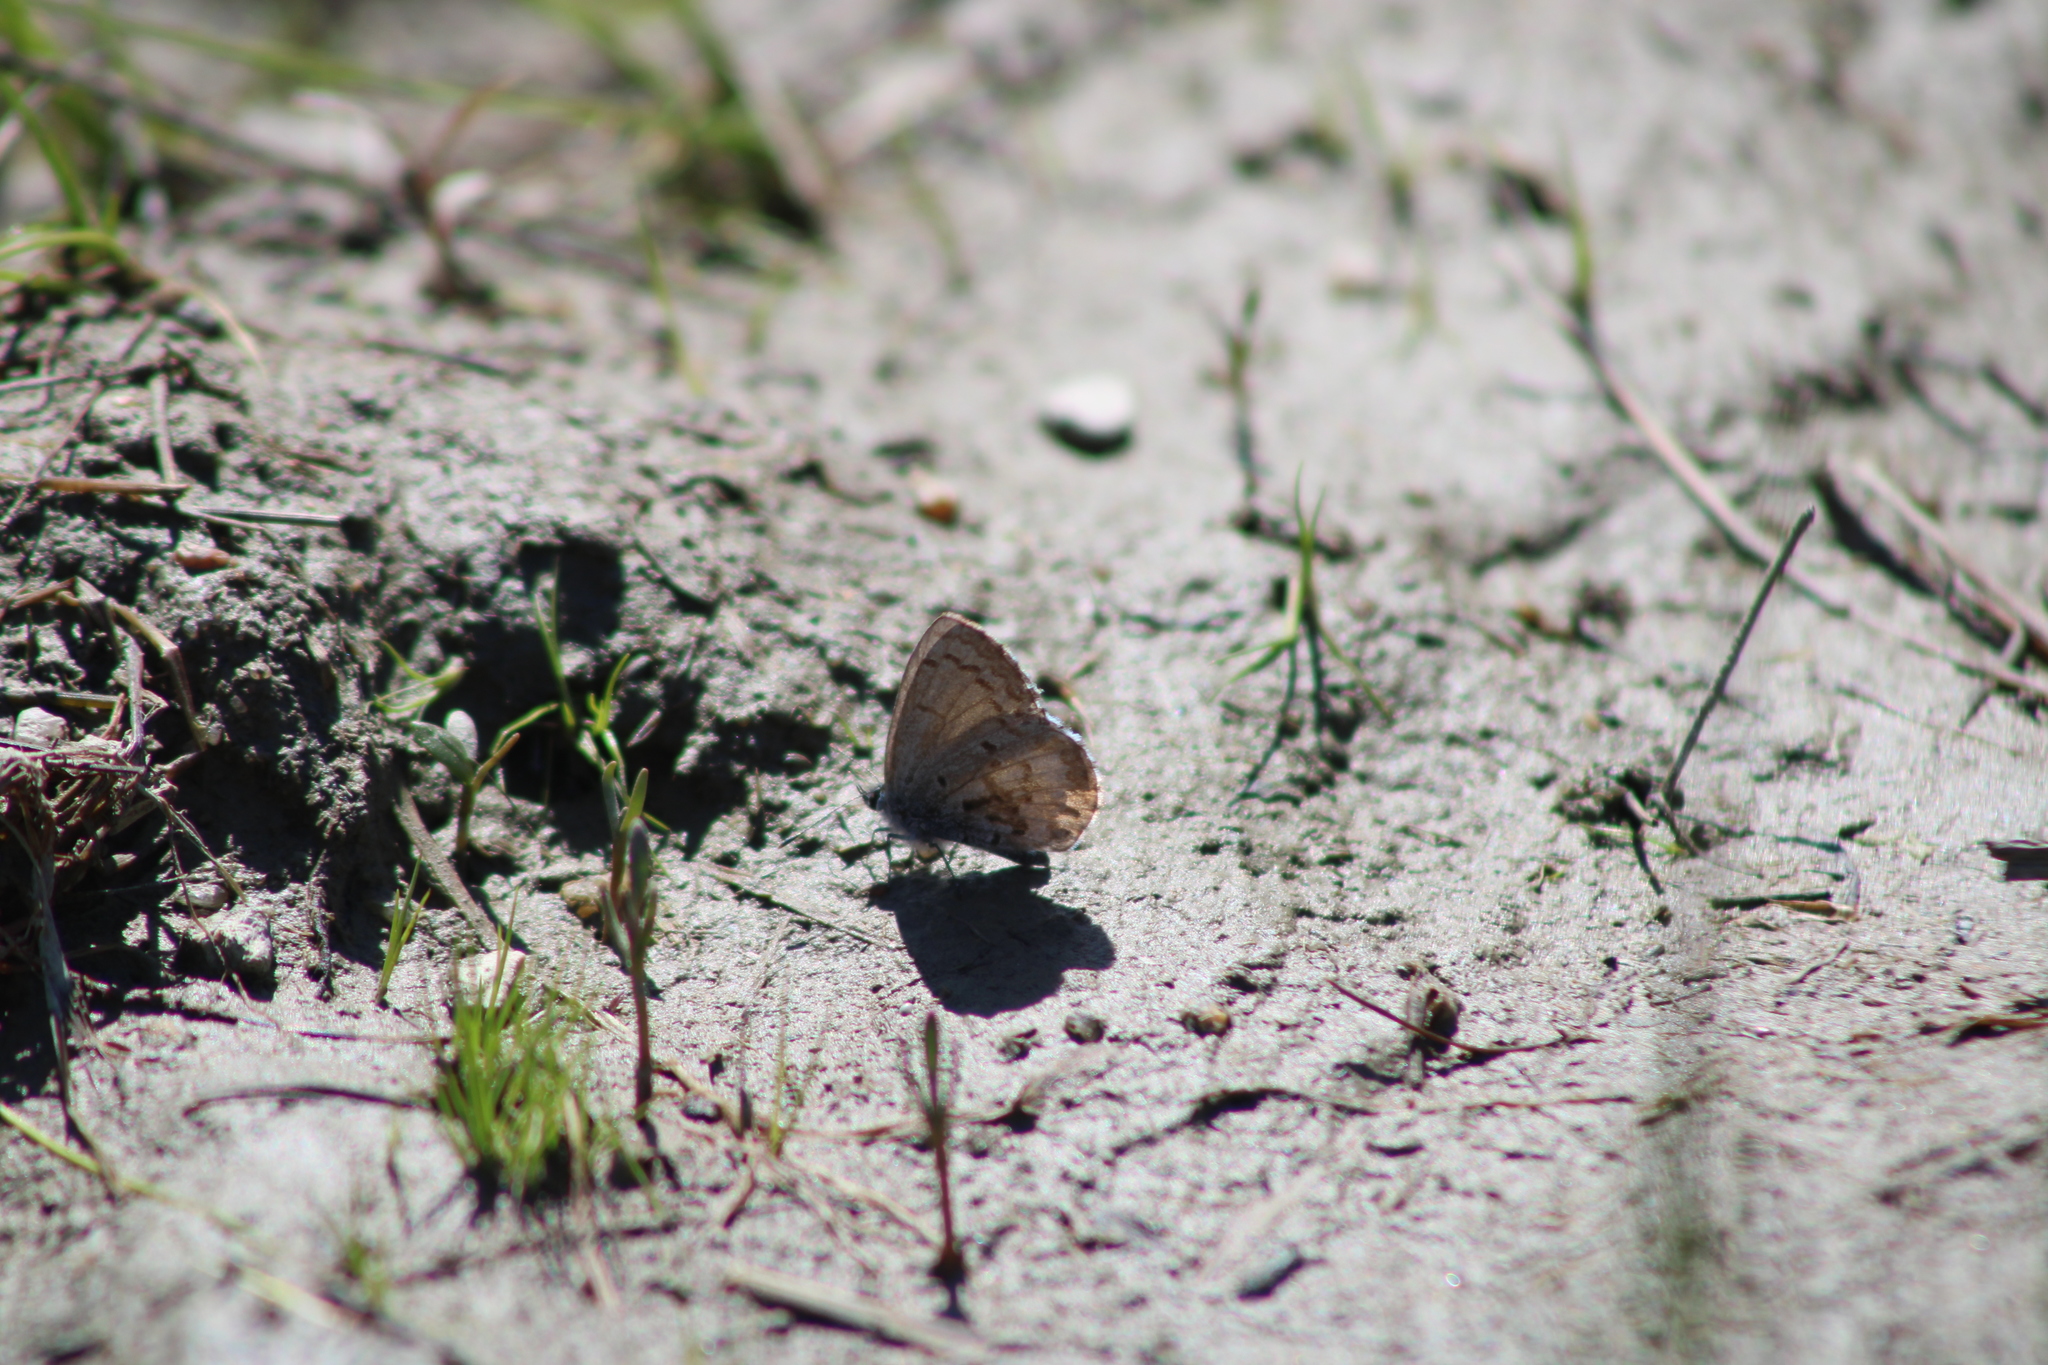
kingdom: Animalia
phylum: Arthropoda
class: Insecta
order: Lepidoptera
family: Lycaenidae
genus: Celastrina
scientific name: Celastrina ladon
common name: Spring azure
